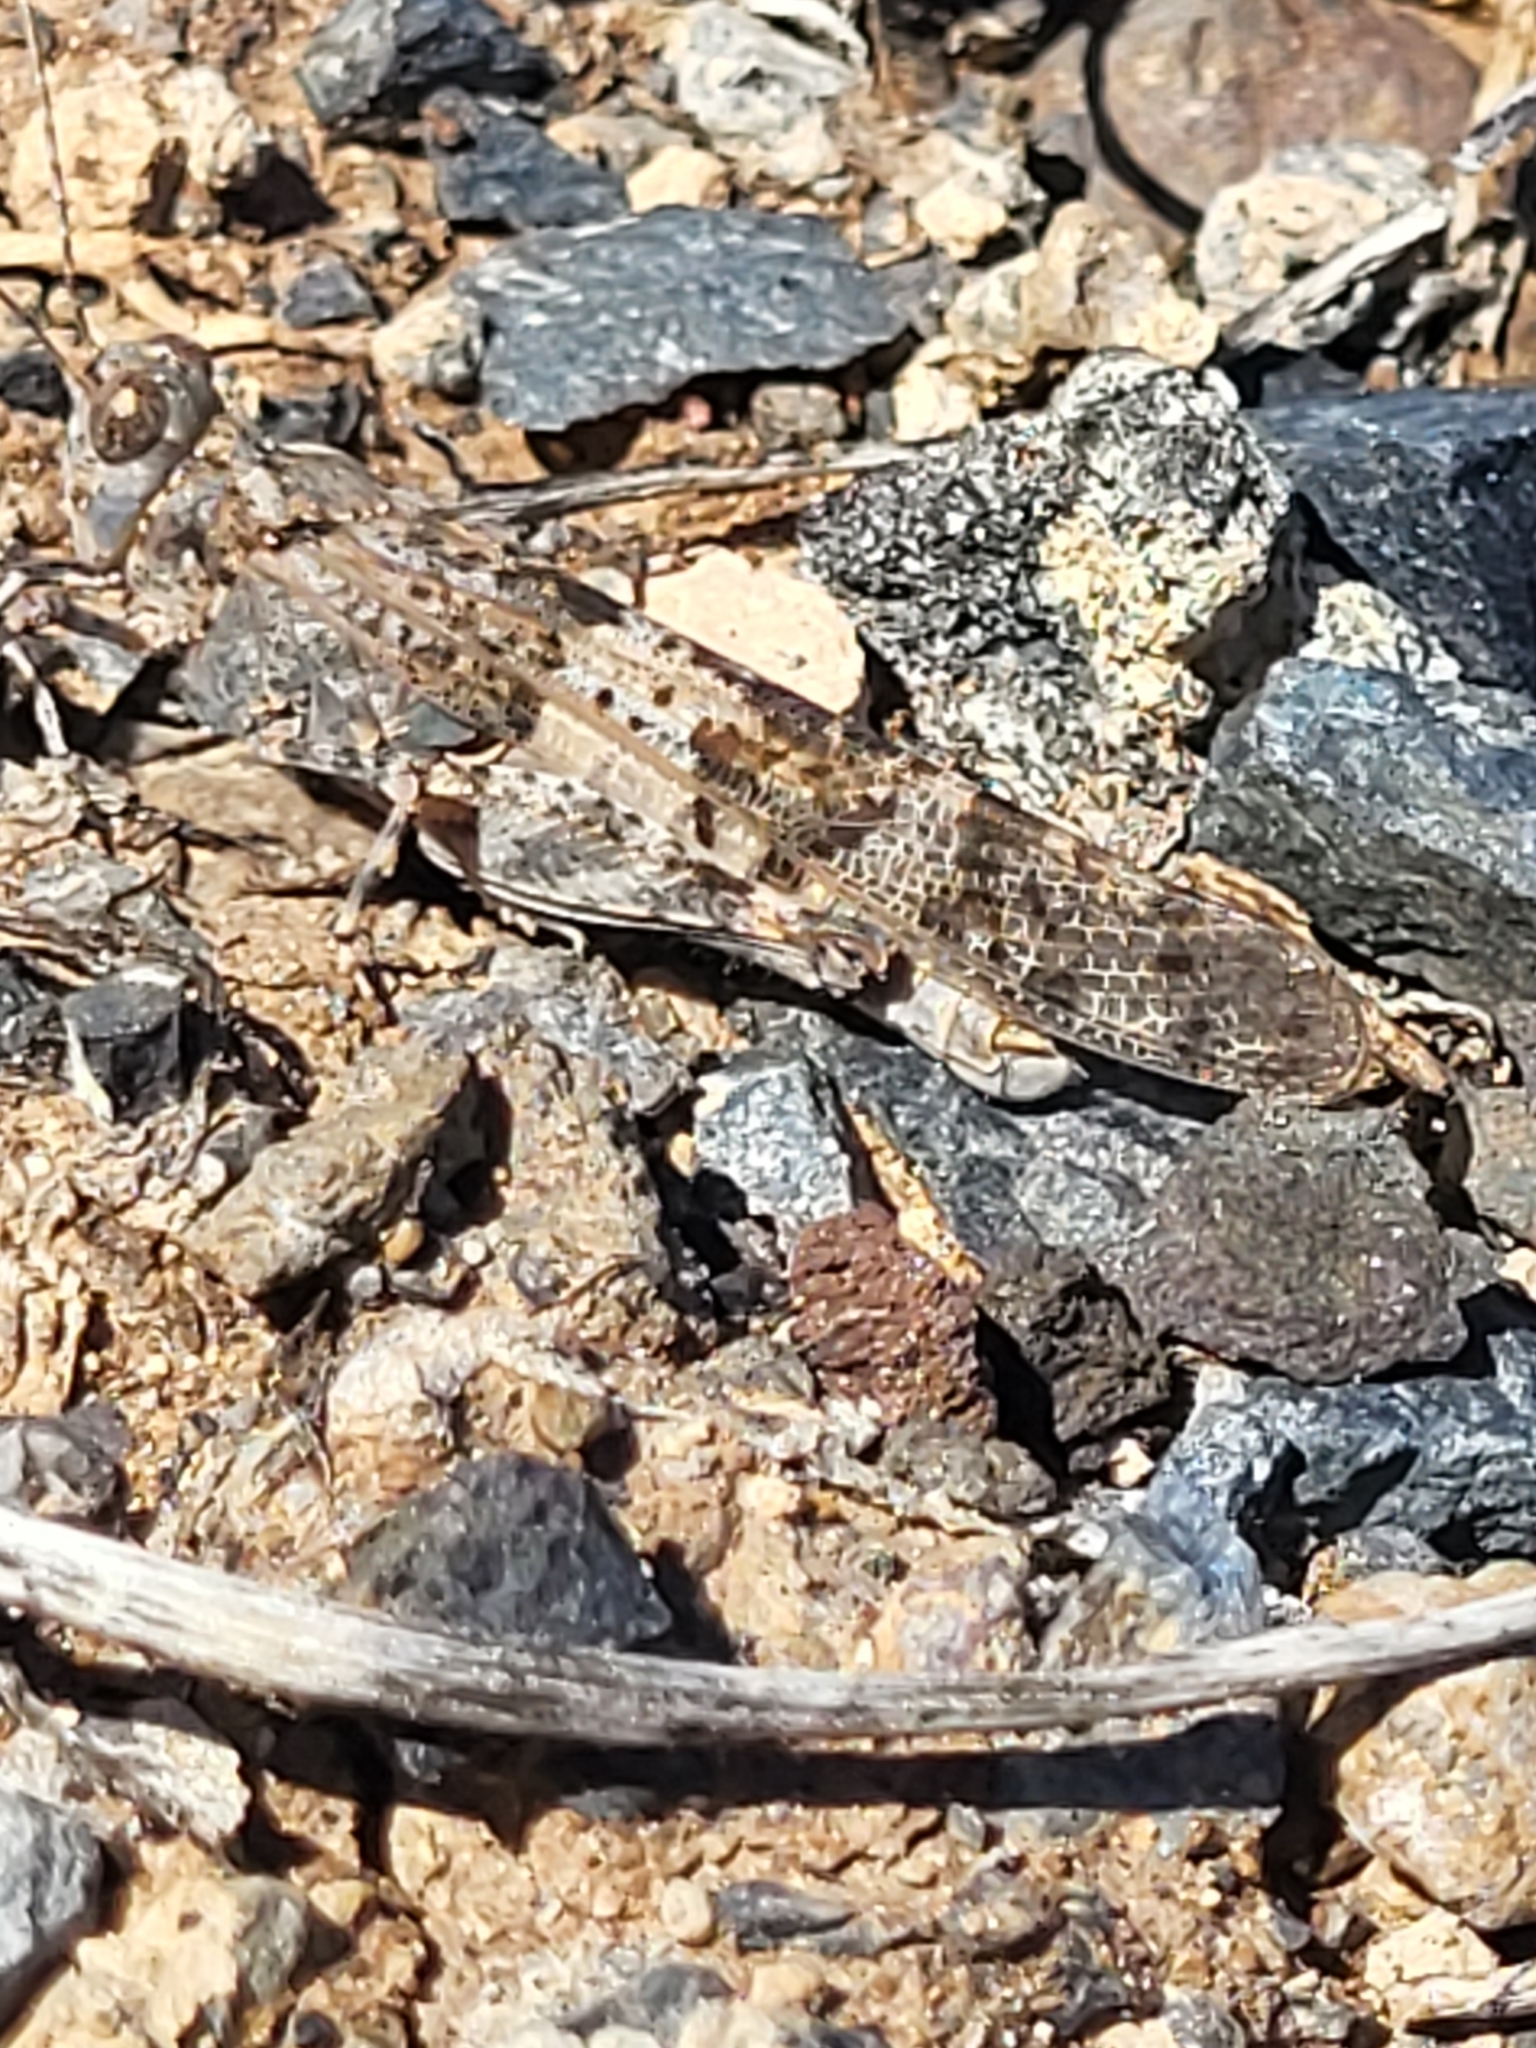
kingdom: Animalia
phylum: Arthropoda
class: Insecta
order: Orthoptera
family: Acrididae
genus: Sphingonotus
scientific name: Sphingonotus rubescens
